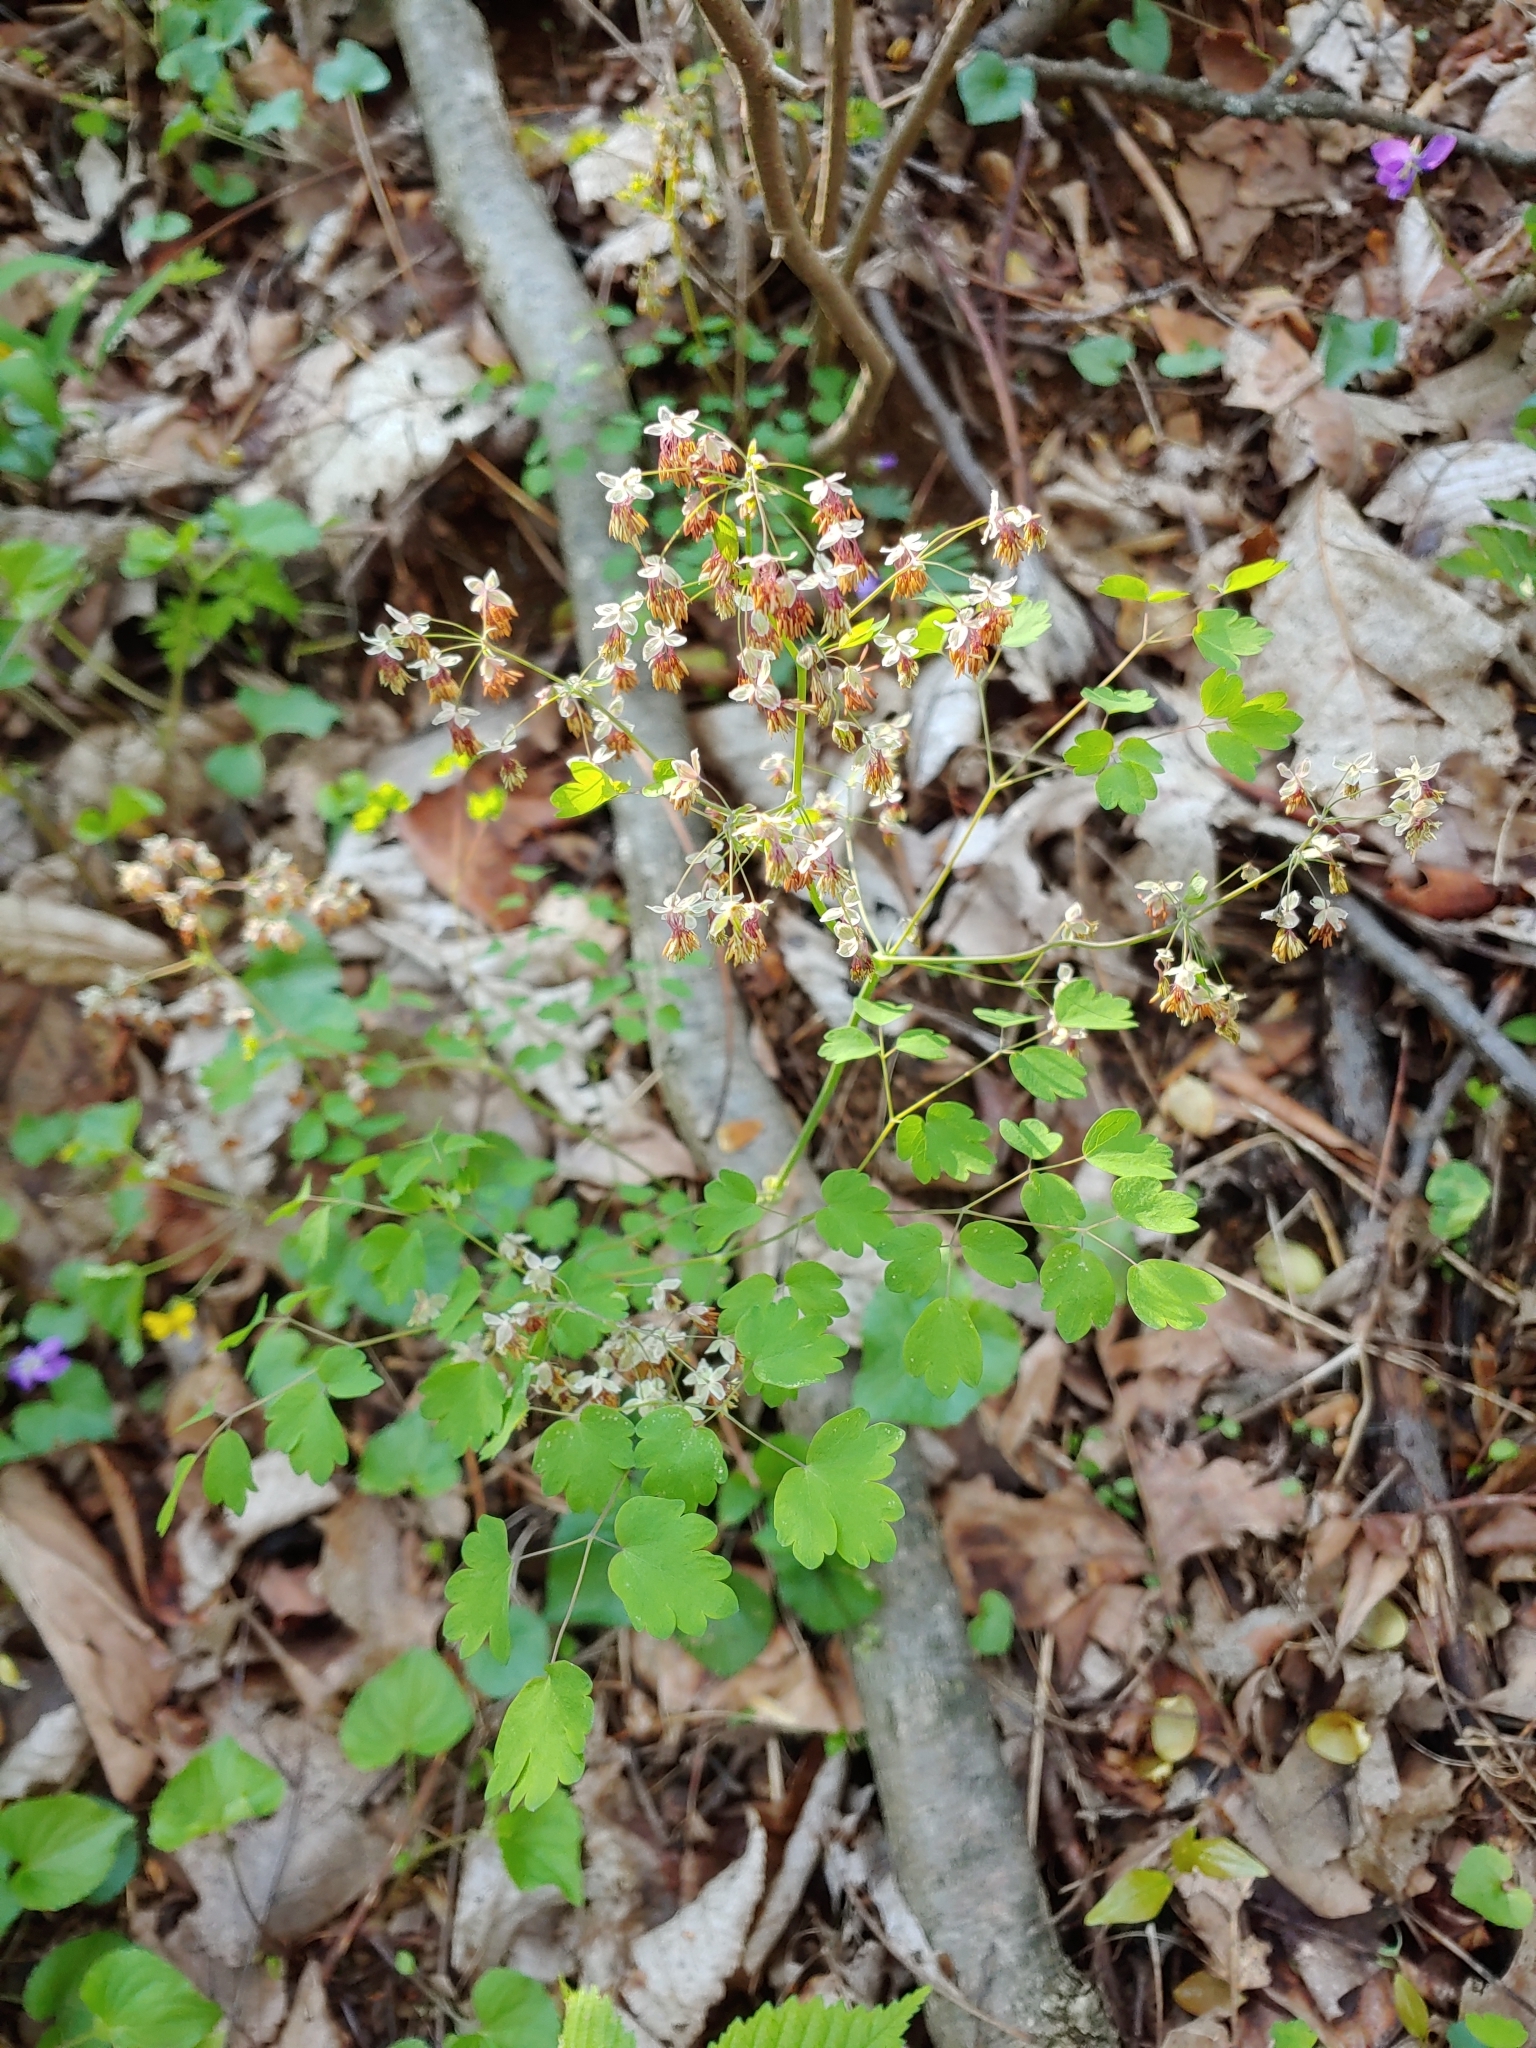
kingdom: Plantae
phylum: Tracheophyta
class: Magnoliopsida
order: Ranunculales
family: Ranunculaceae
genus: Thalictrum
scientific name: Thalictrum dioicum
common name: Early meadow-rue
